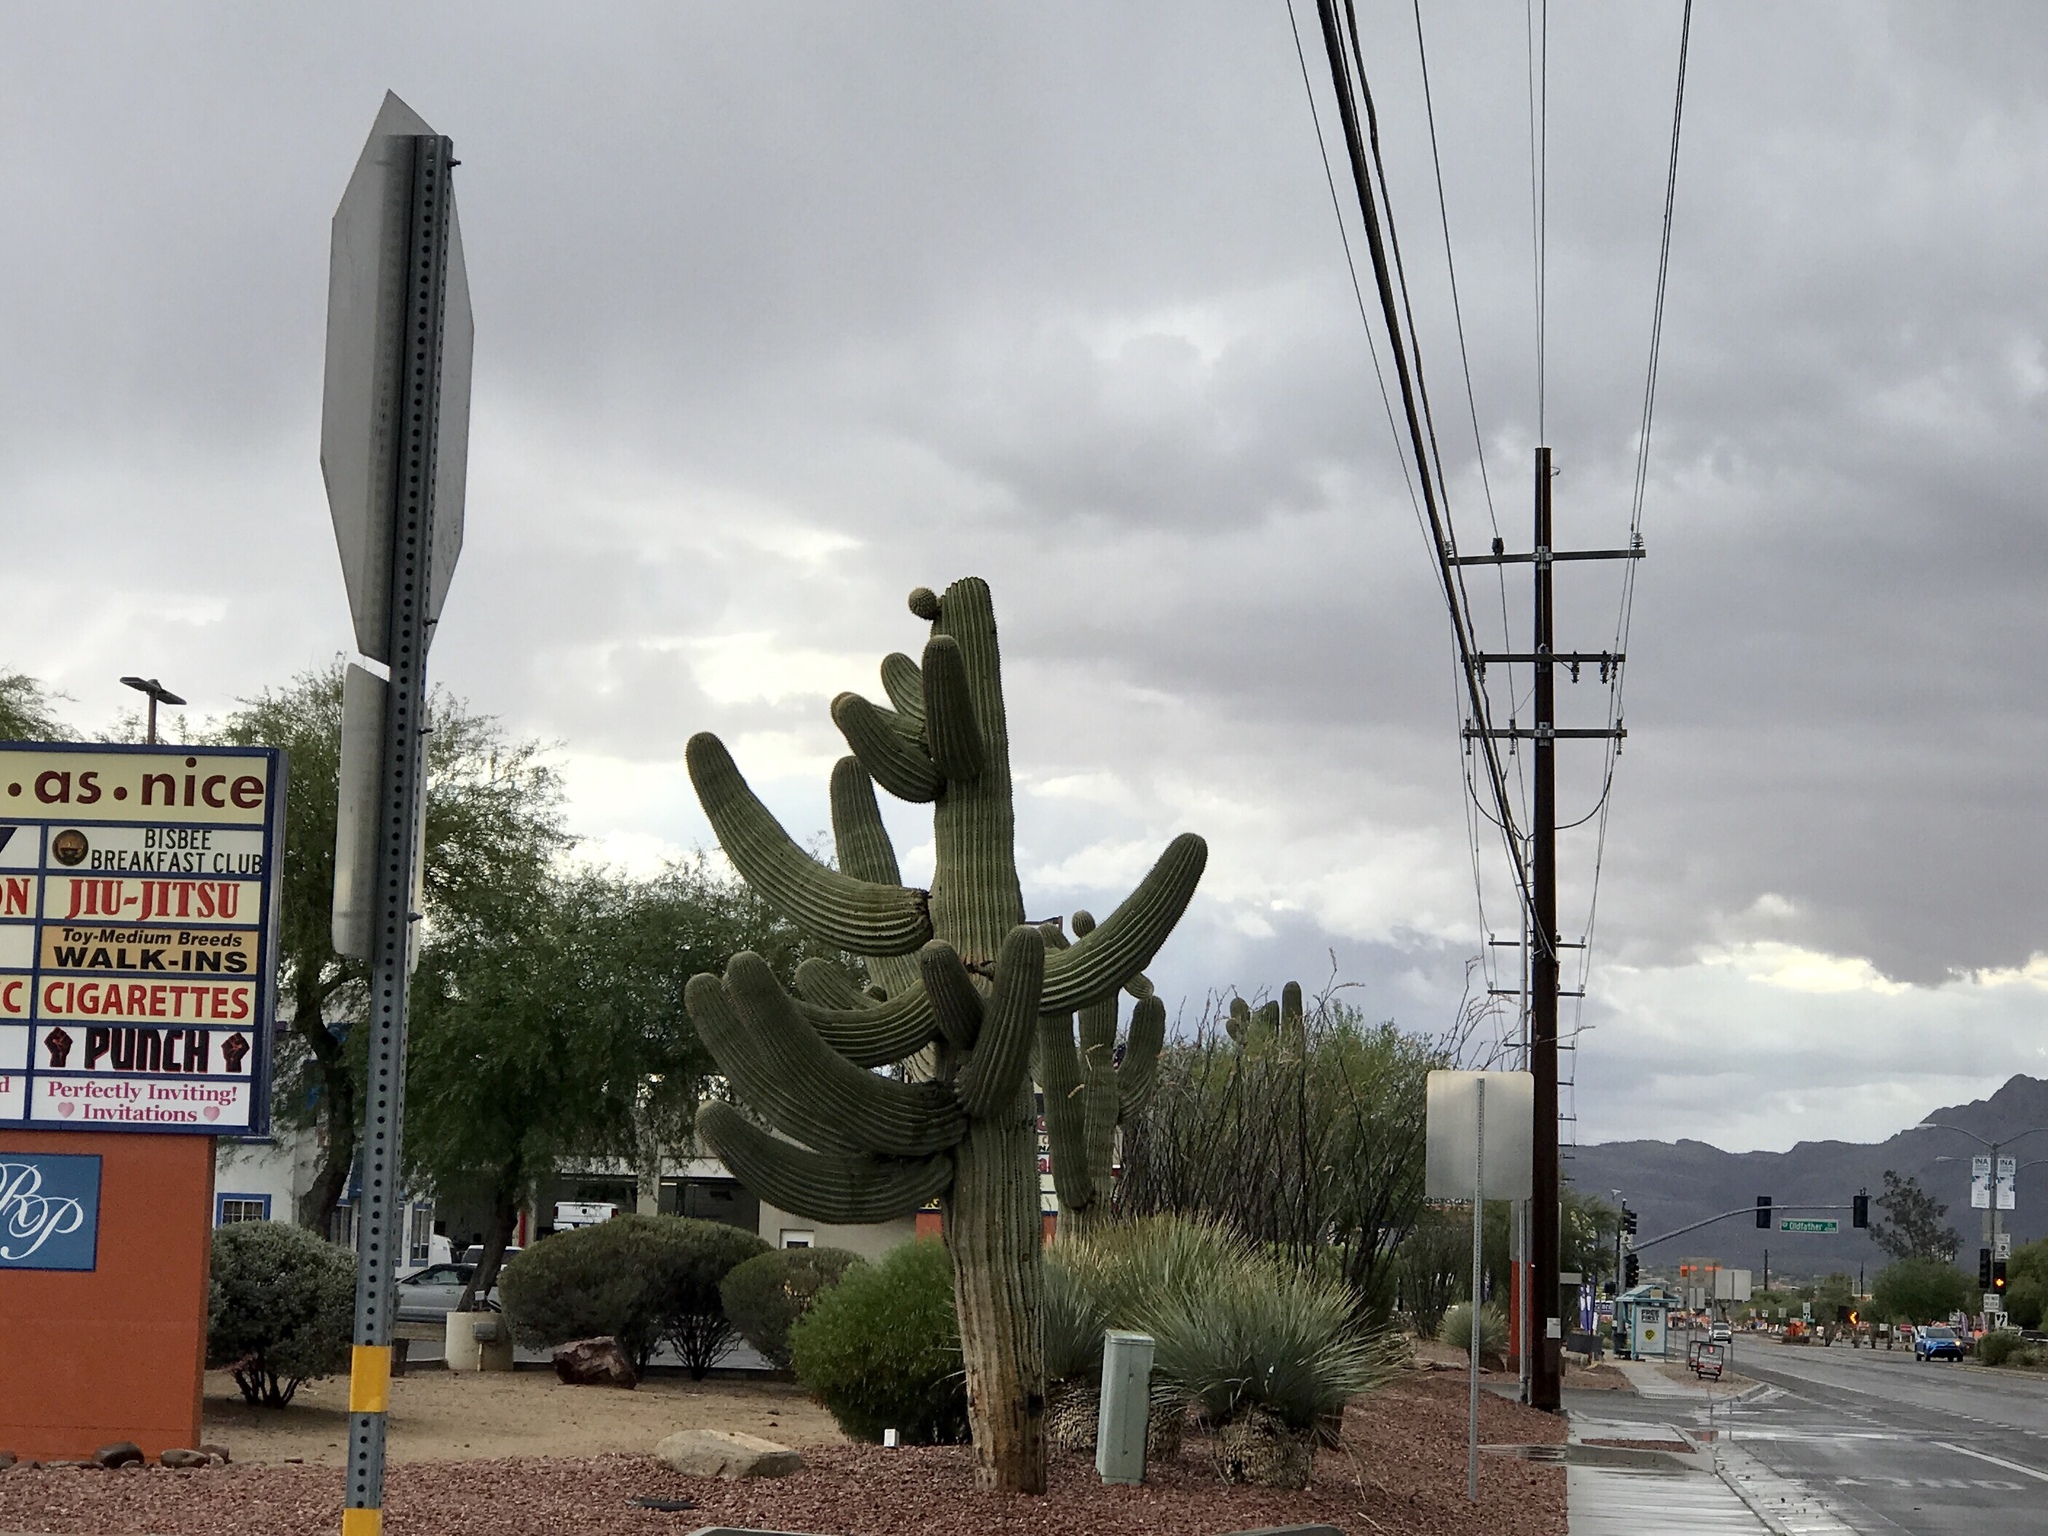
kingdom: Plantae
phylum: Tracheophyta
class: Magnoliopsida
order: Caryophyllales
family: Cactaceae
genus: Carnegiea
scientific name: Carnegiea gigantea
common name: Saguaro
